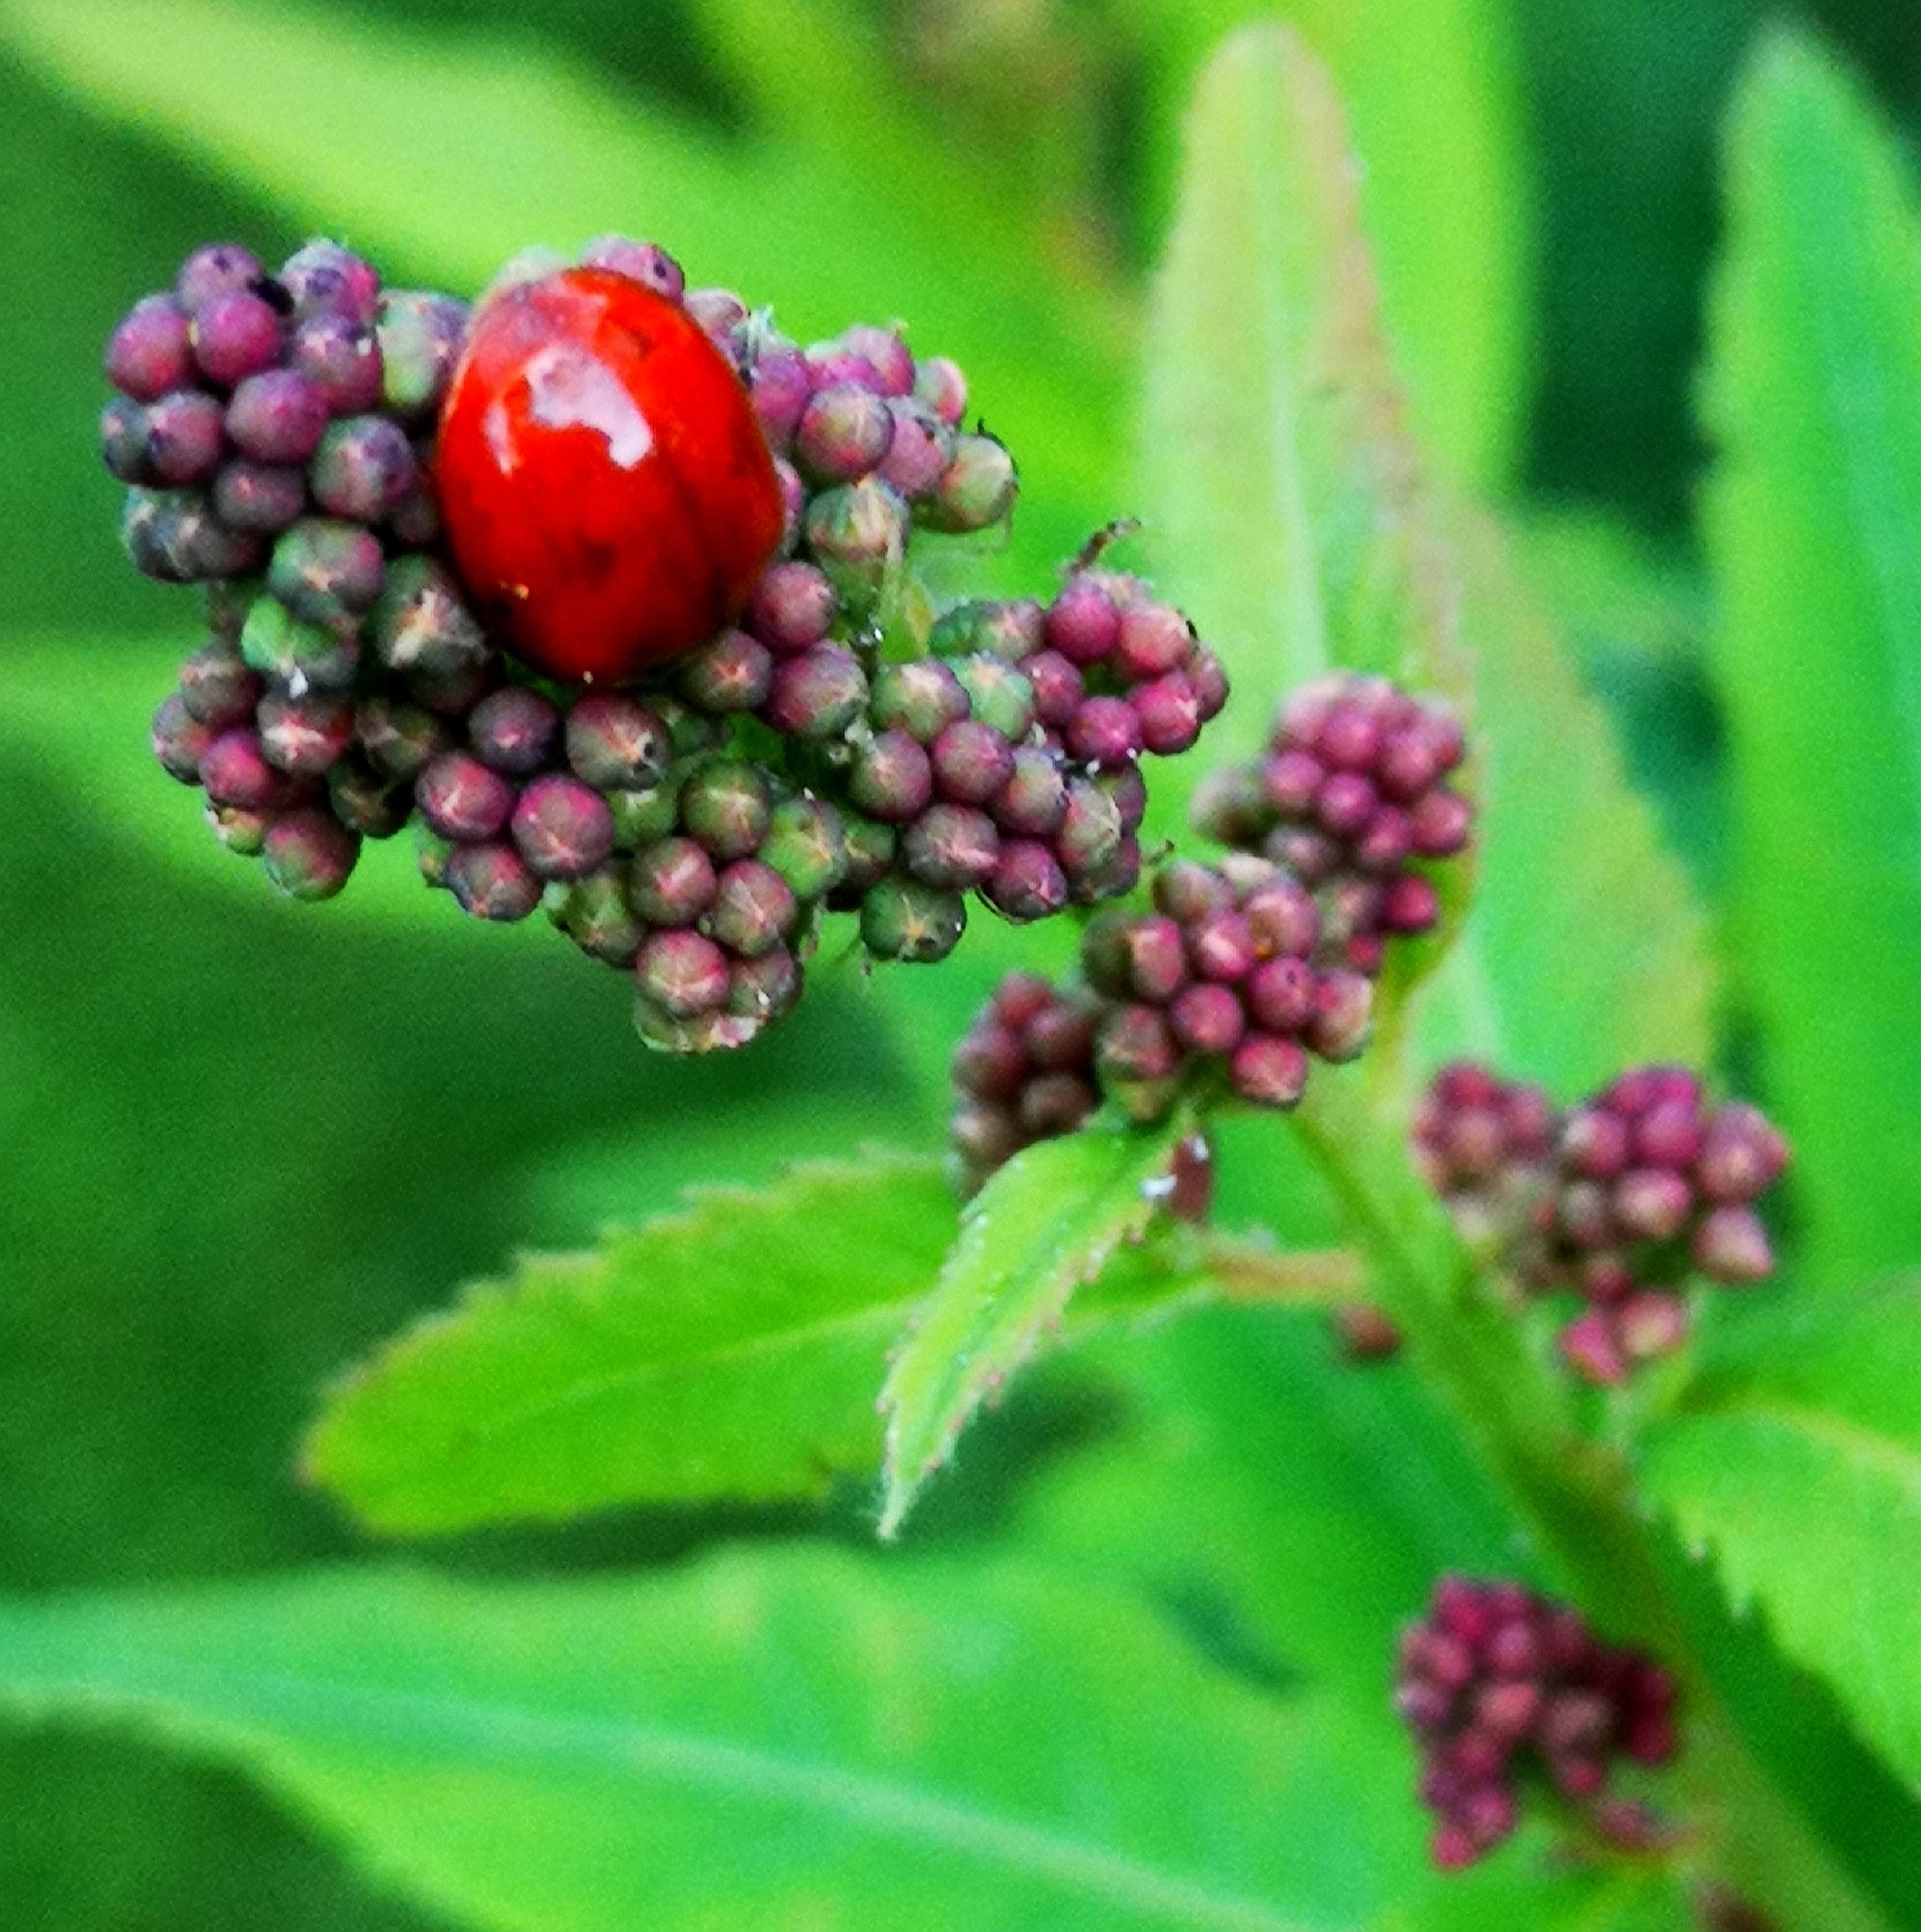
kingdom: Animalia
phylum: Arthropoda
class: Insecta
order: Coleoptera
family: Coccinellidae
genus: Harmonia
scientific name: Harmonia axyridis
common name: Harlequin ladybird
